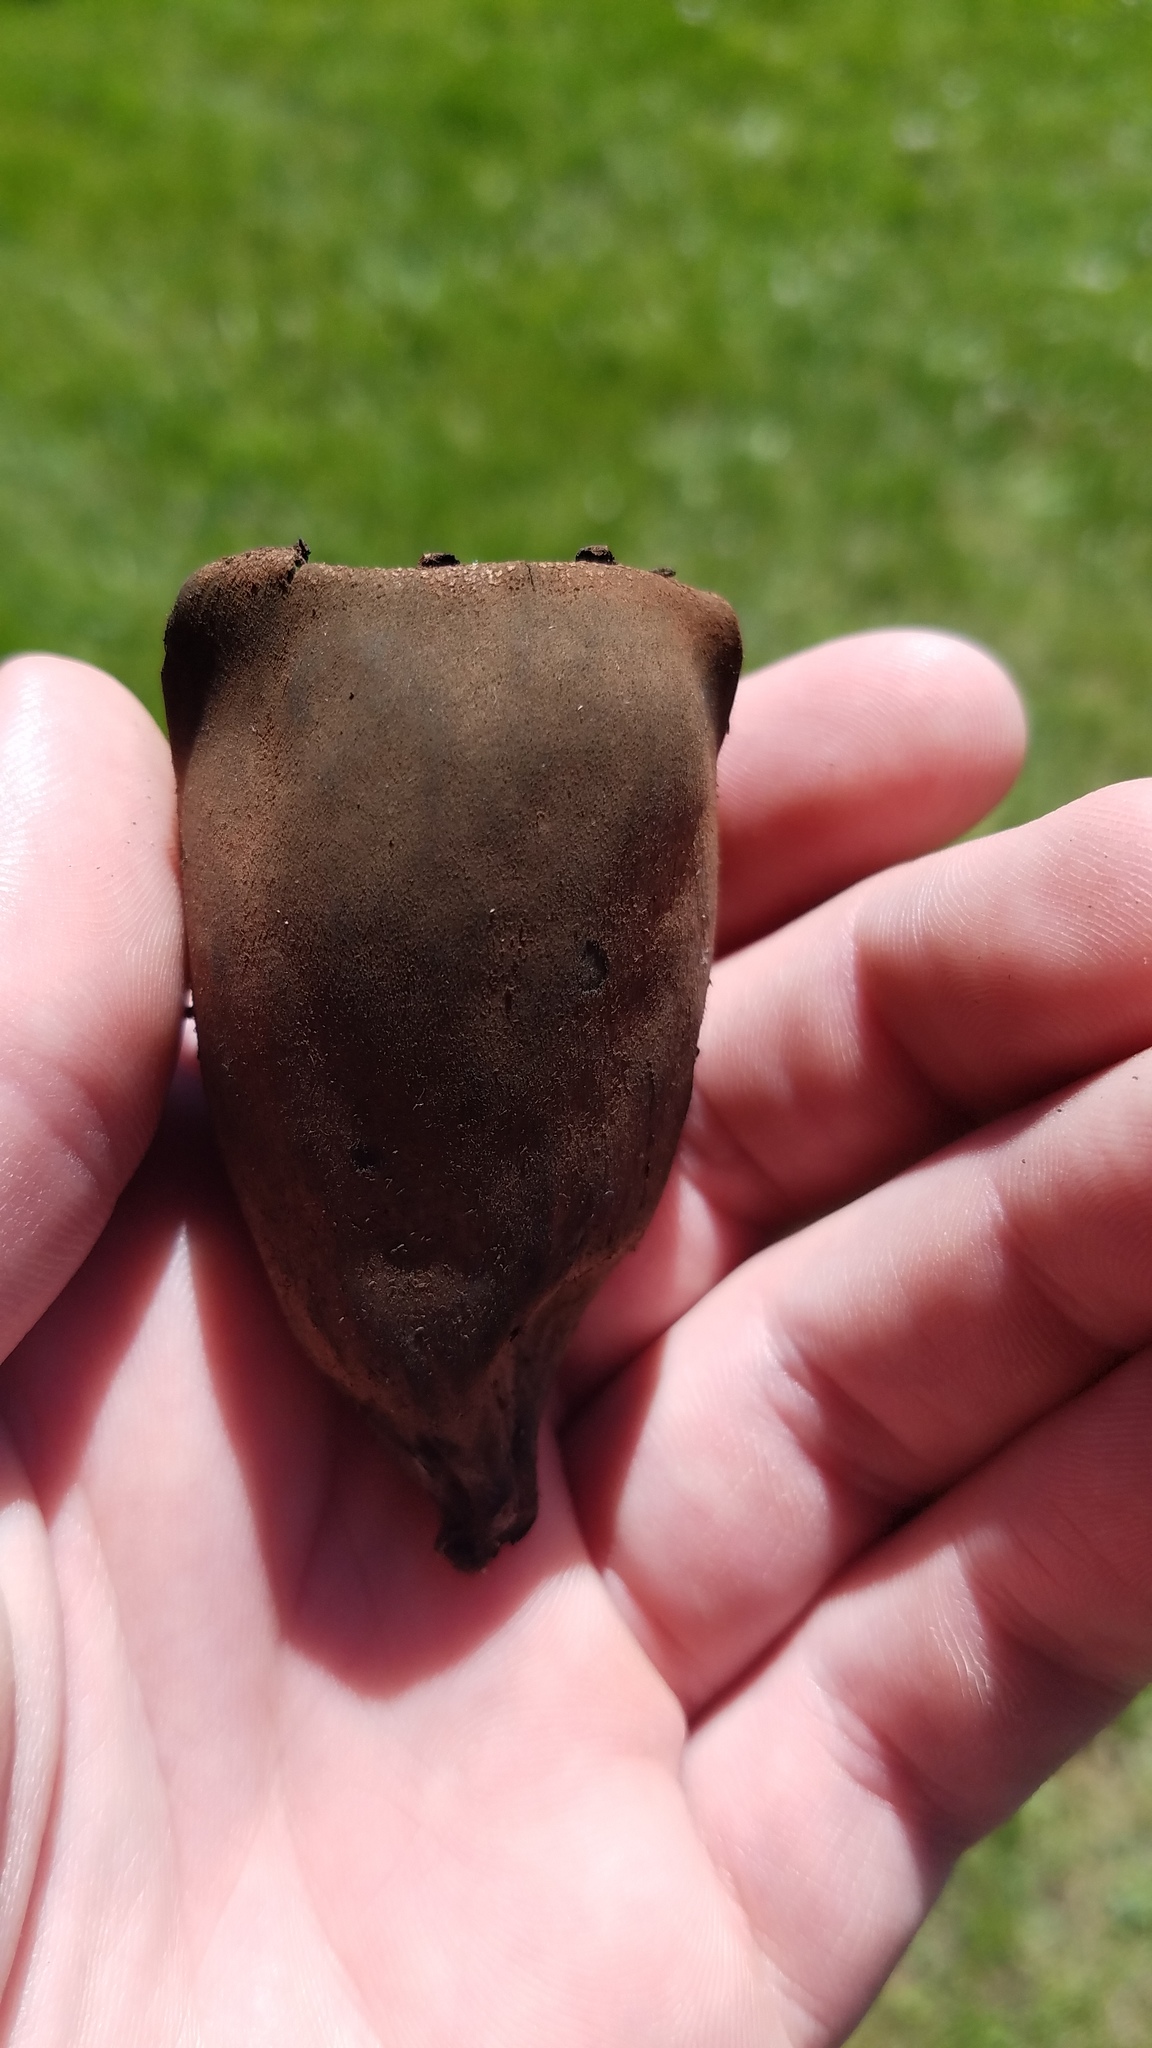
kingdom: Fungi
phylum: Ascomycota
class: Pezizomycetes
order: Pezizales
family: Sarcosomataceae
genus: Urnula
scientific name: Urnula craterium
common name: Devil's urn
